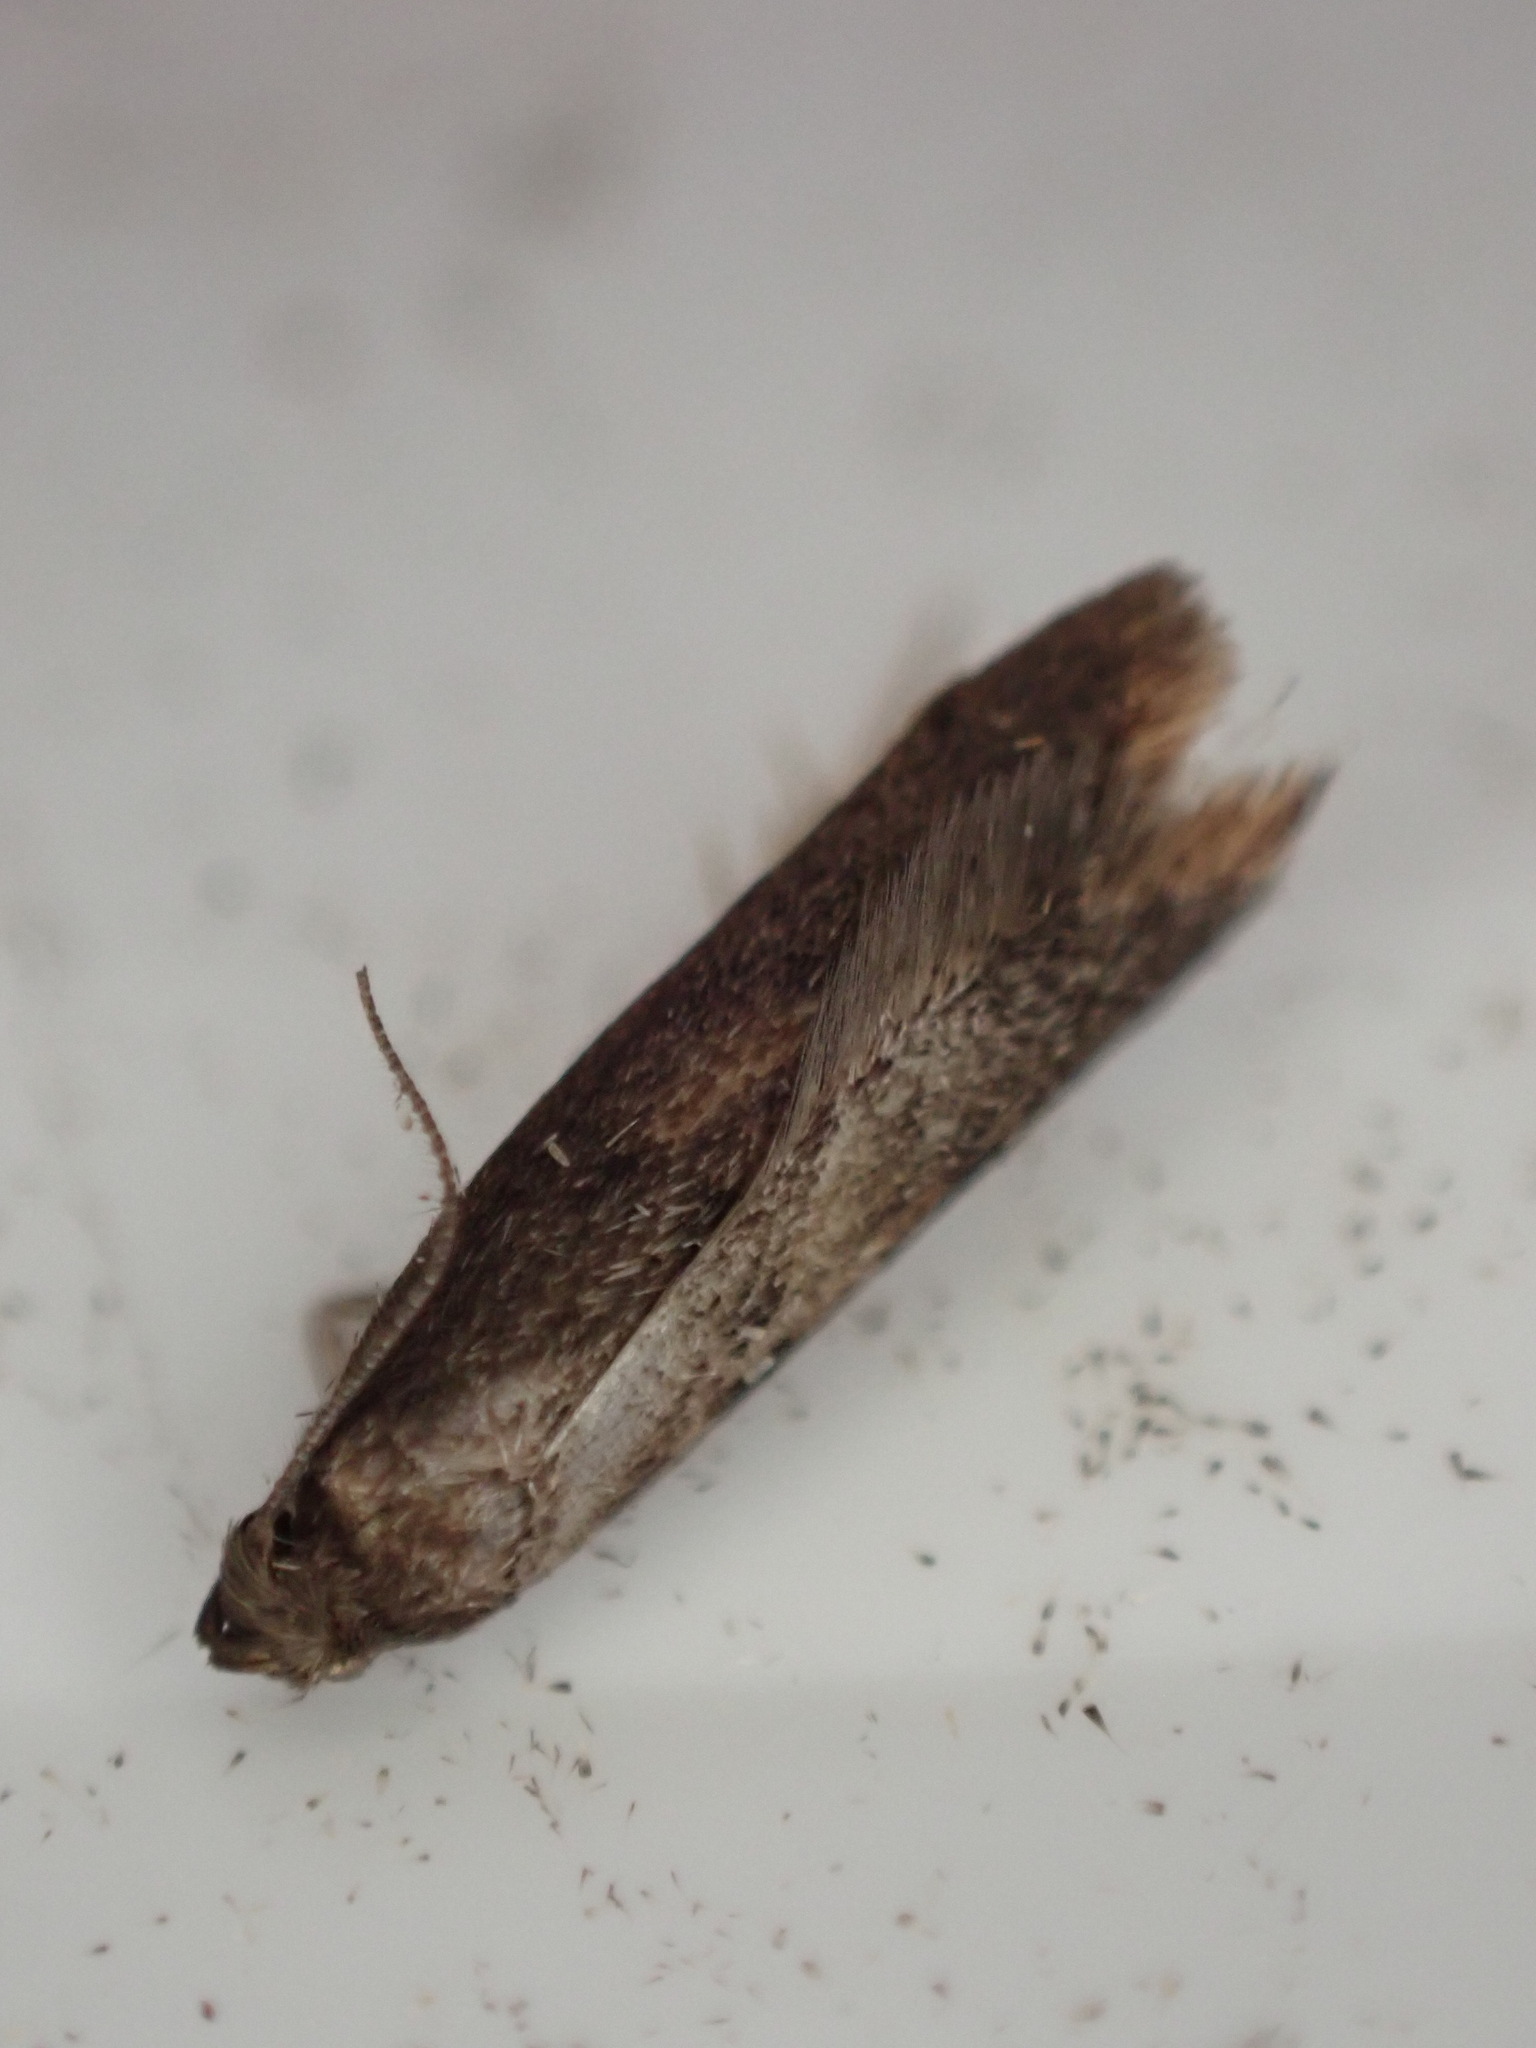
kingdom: Animalia
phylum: Arthropoda
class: Insecta
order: Lepidoptera
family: Oecophoridae
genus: Tachystola
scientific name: Tachystola acroxantha
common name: Ruddy streak
